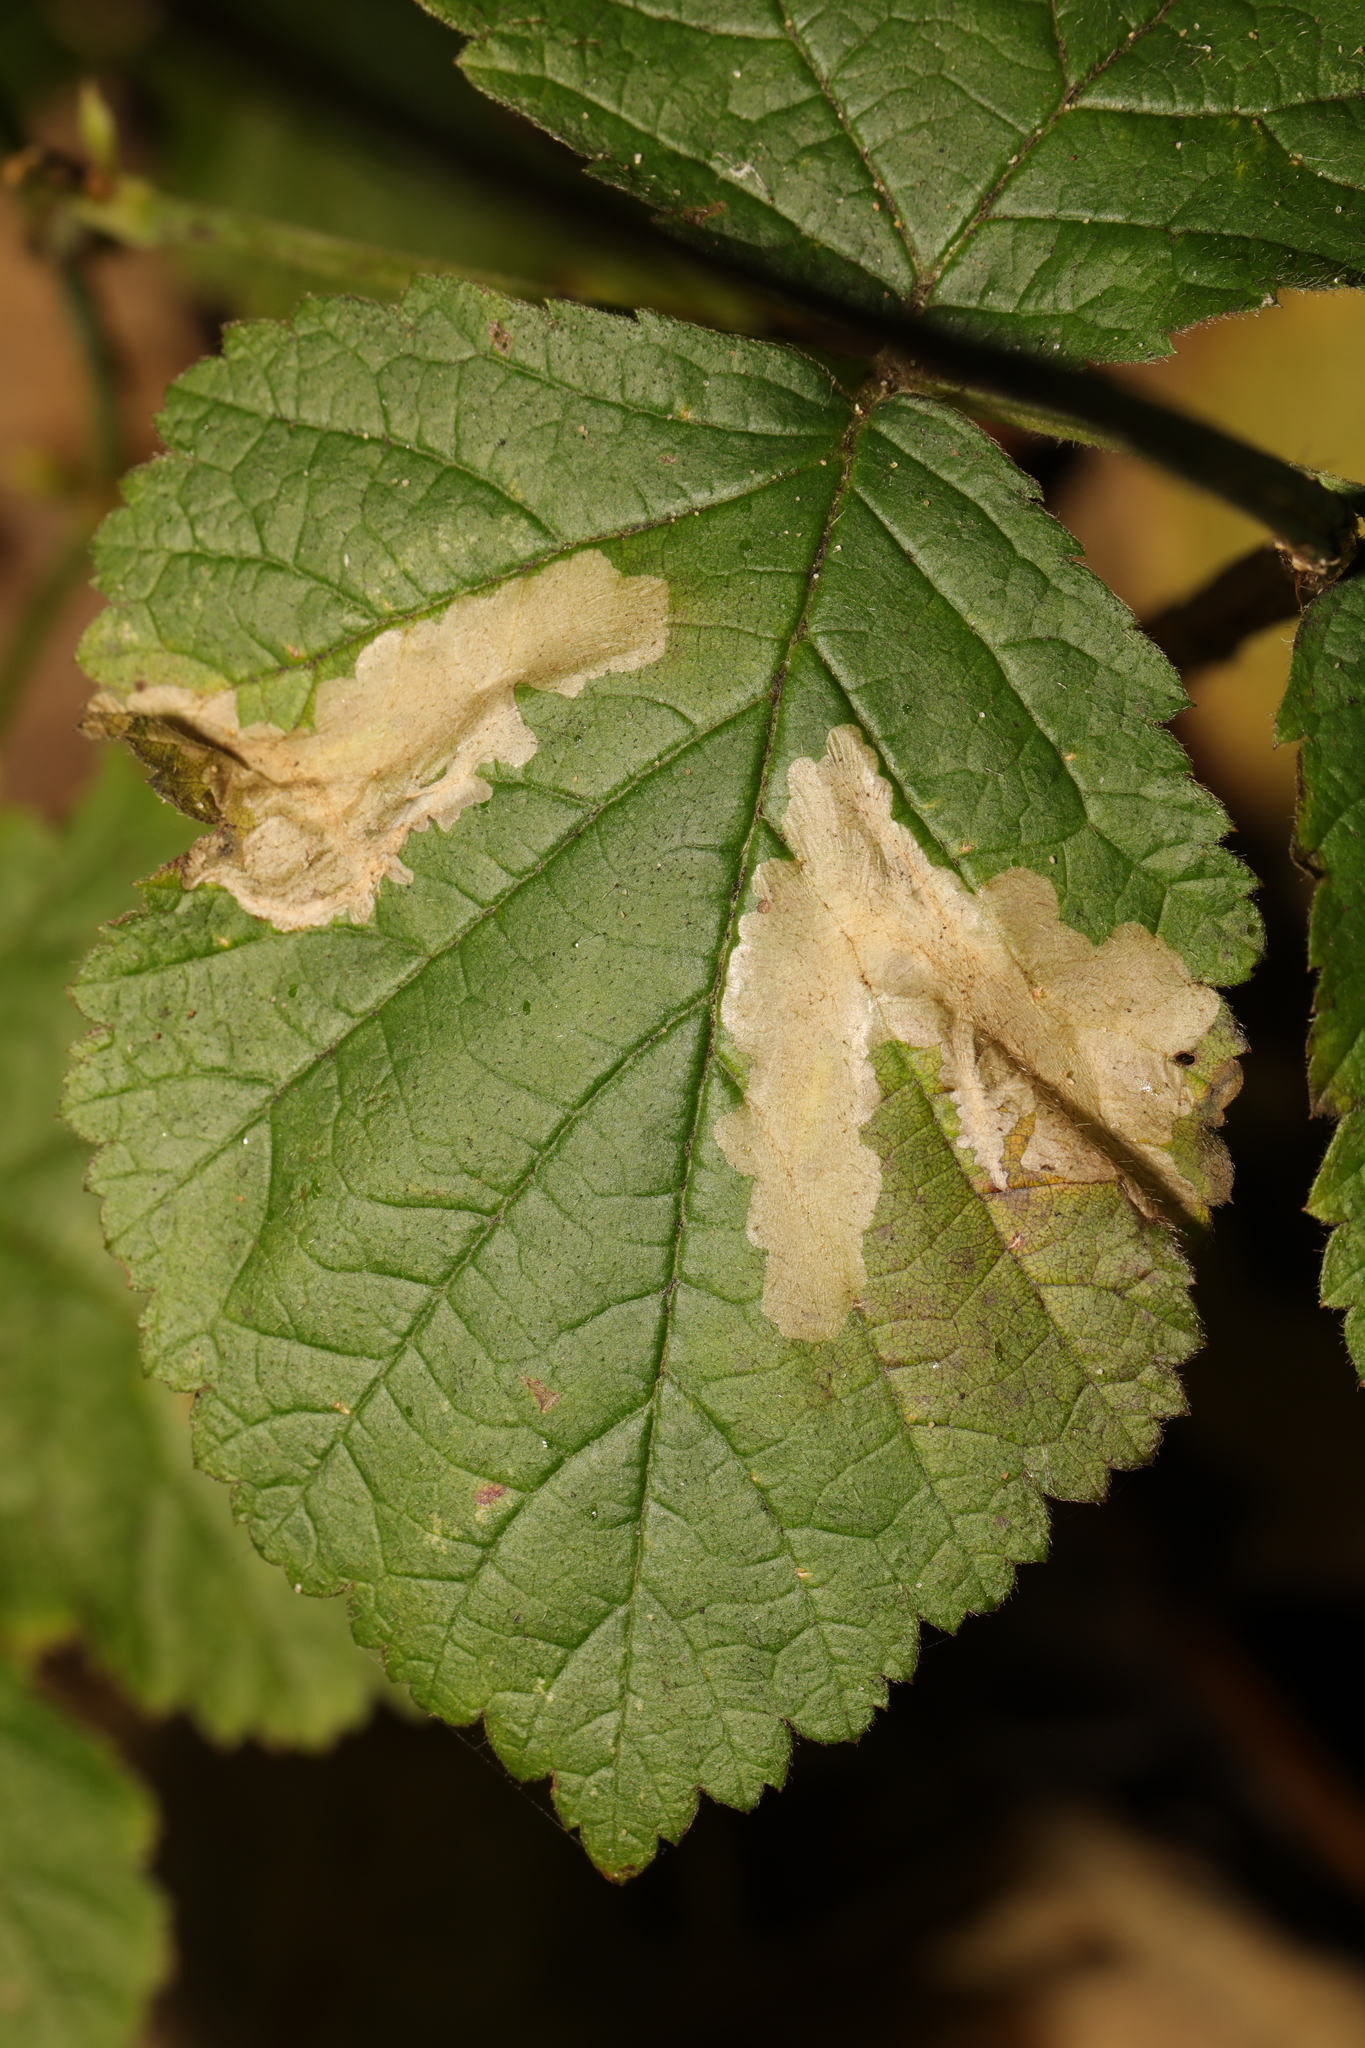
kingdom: Animalia
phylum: Arthropoda
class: Insecta
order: Lepidoptera
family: Tischeriidae
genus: Coptotriche
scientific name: Coptotriche marginea
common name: Bordered carl
